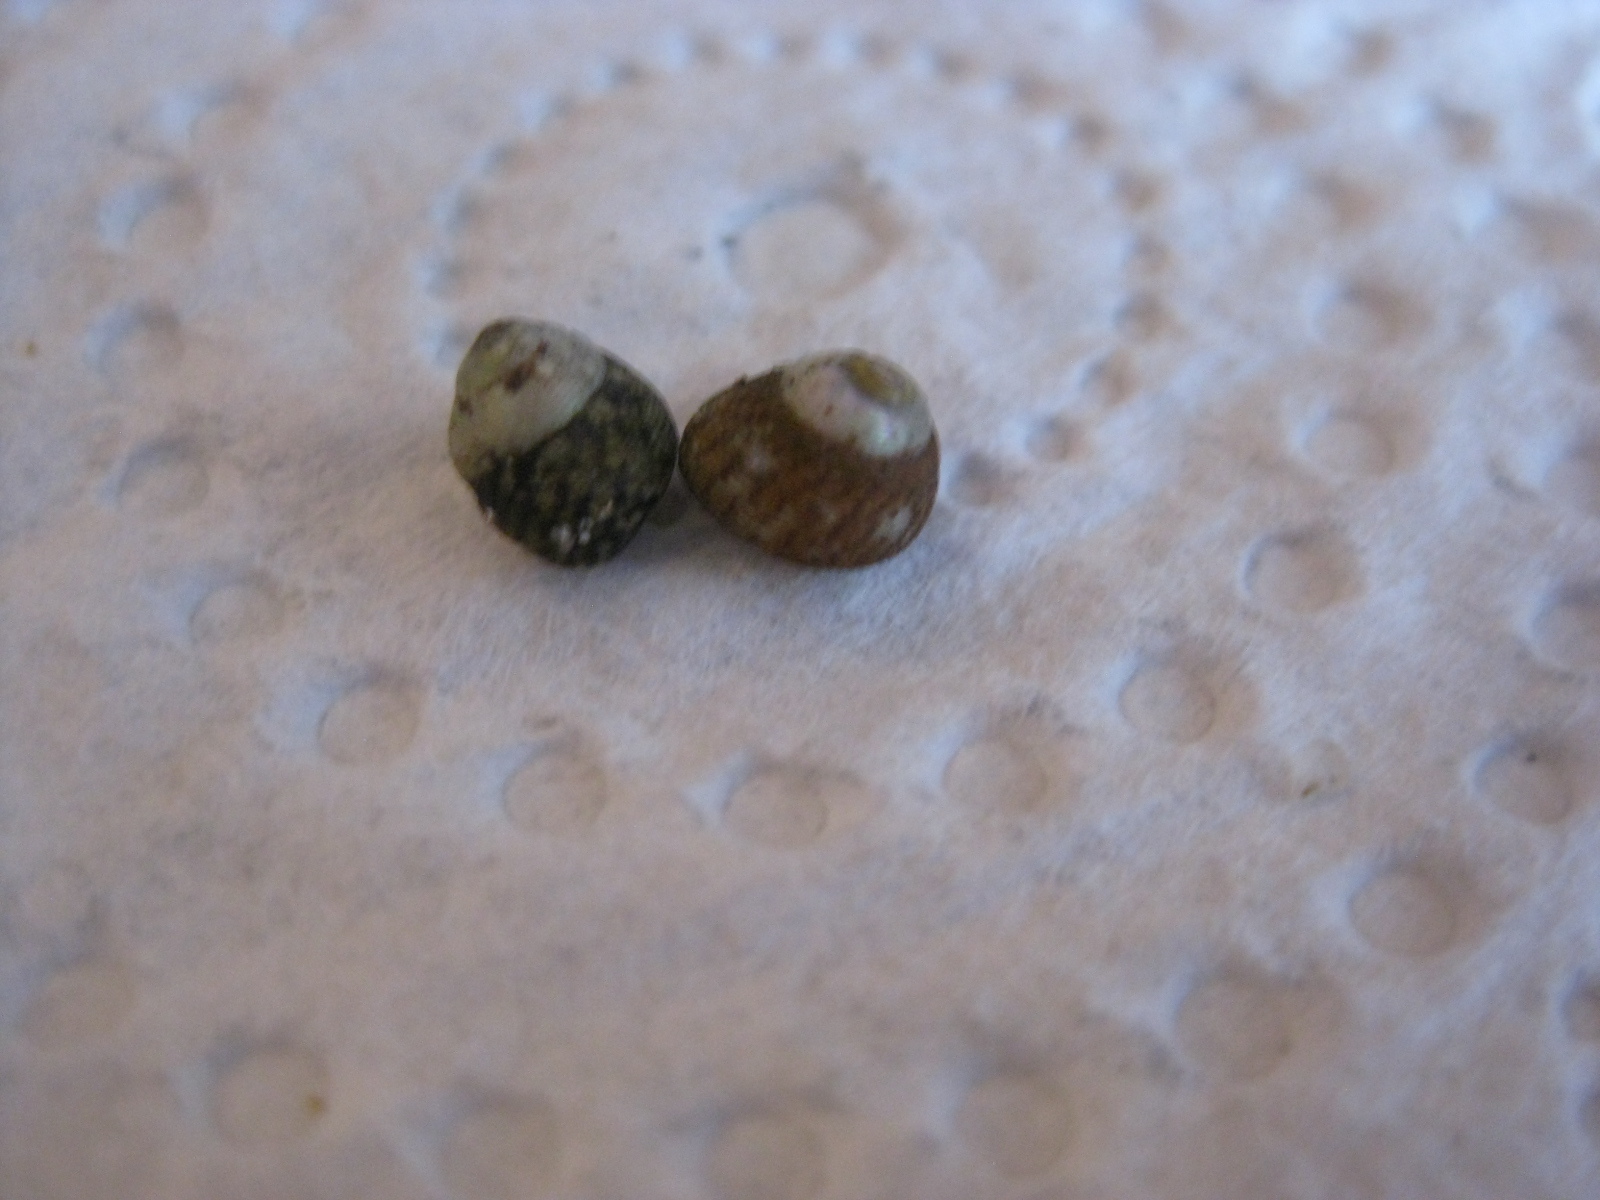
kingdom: Animalia
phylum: Mollusca
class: Gastropoda
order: Trochida
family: Trochidae
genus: Micrelenchus
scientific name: Micrelenchus tessellatus
